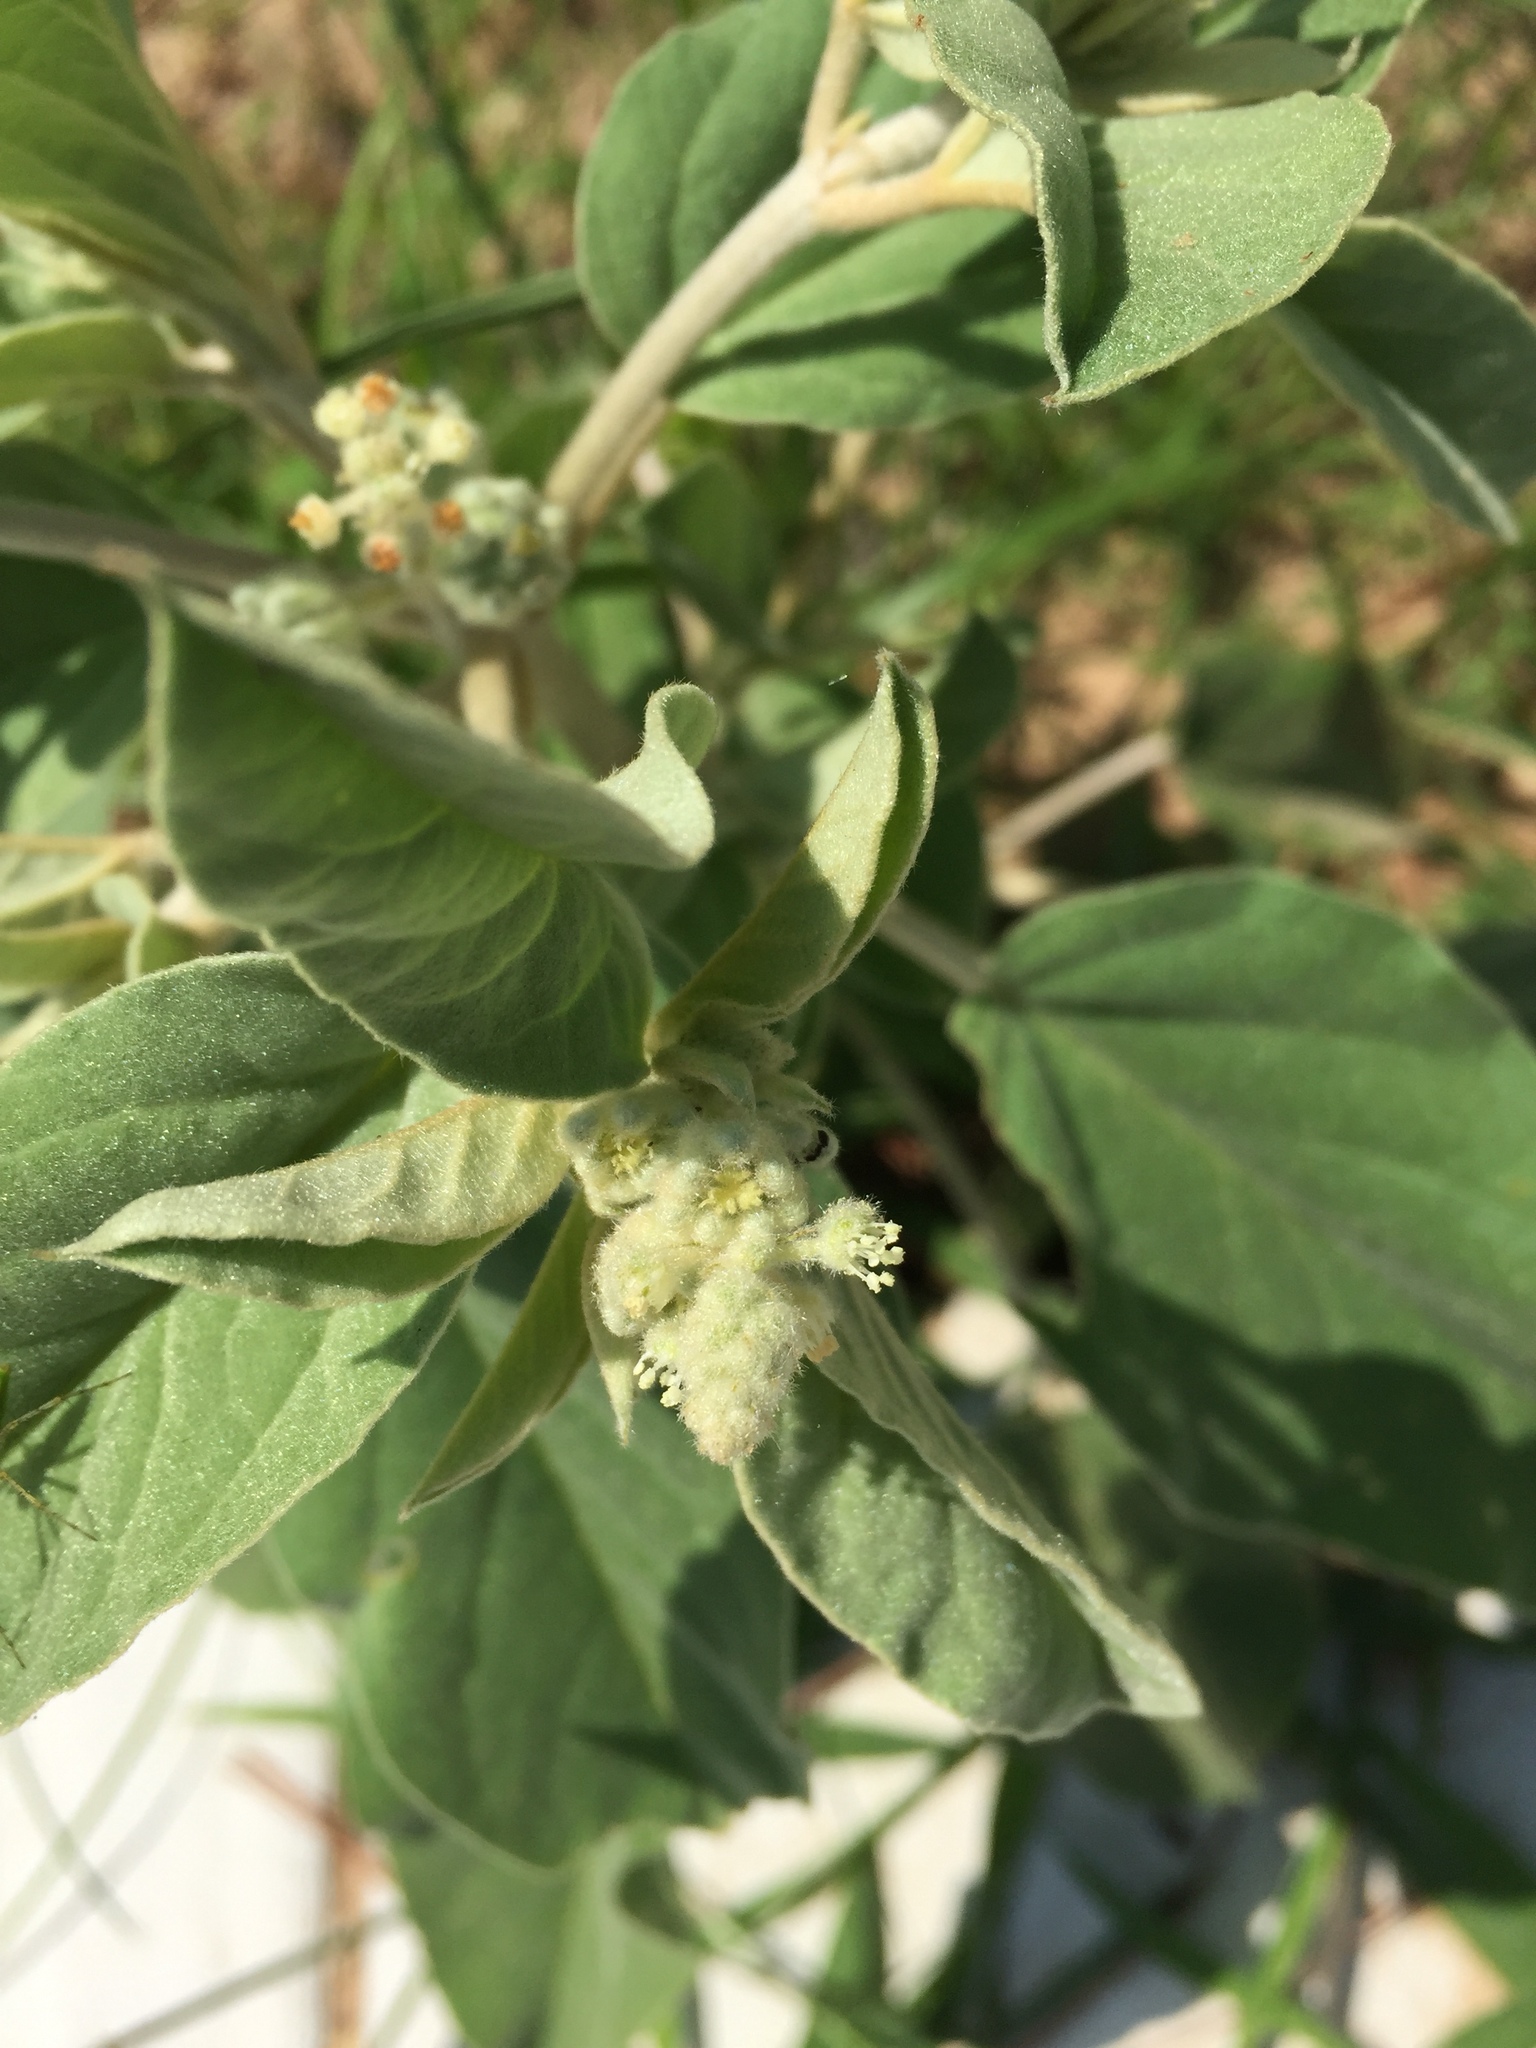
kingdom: Plantae
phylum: Tracheophyta
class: Magnoliopsida
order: Malpighiales
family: Euphorbiaceae
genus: Croton
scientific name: Croton lindheimeri
